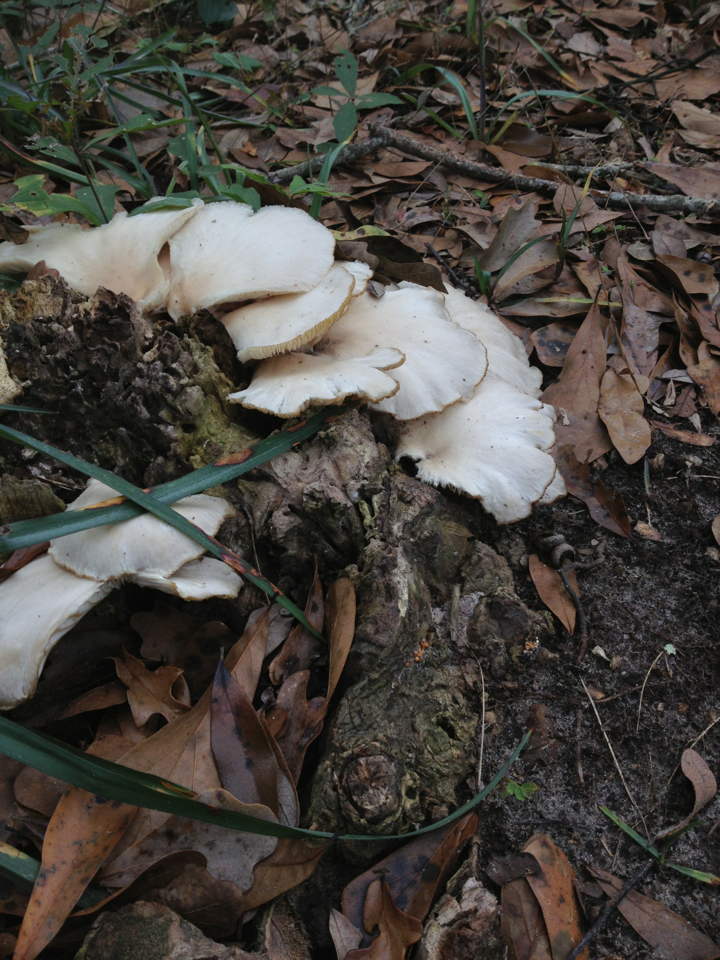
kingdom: Fungi
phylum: Basidiomycota
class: Agaricomycetes
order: Agaricales
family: Pleurotaceae
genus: Pleurotus
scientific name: Pleurotus ostreatus
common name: Oyster mushroom
